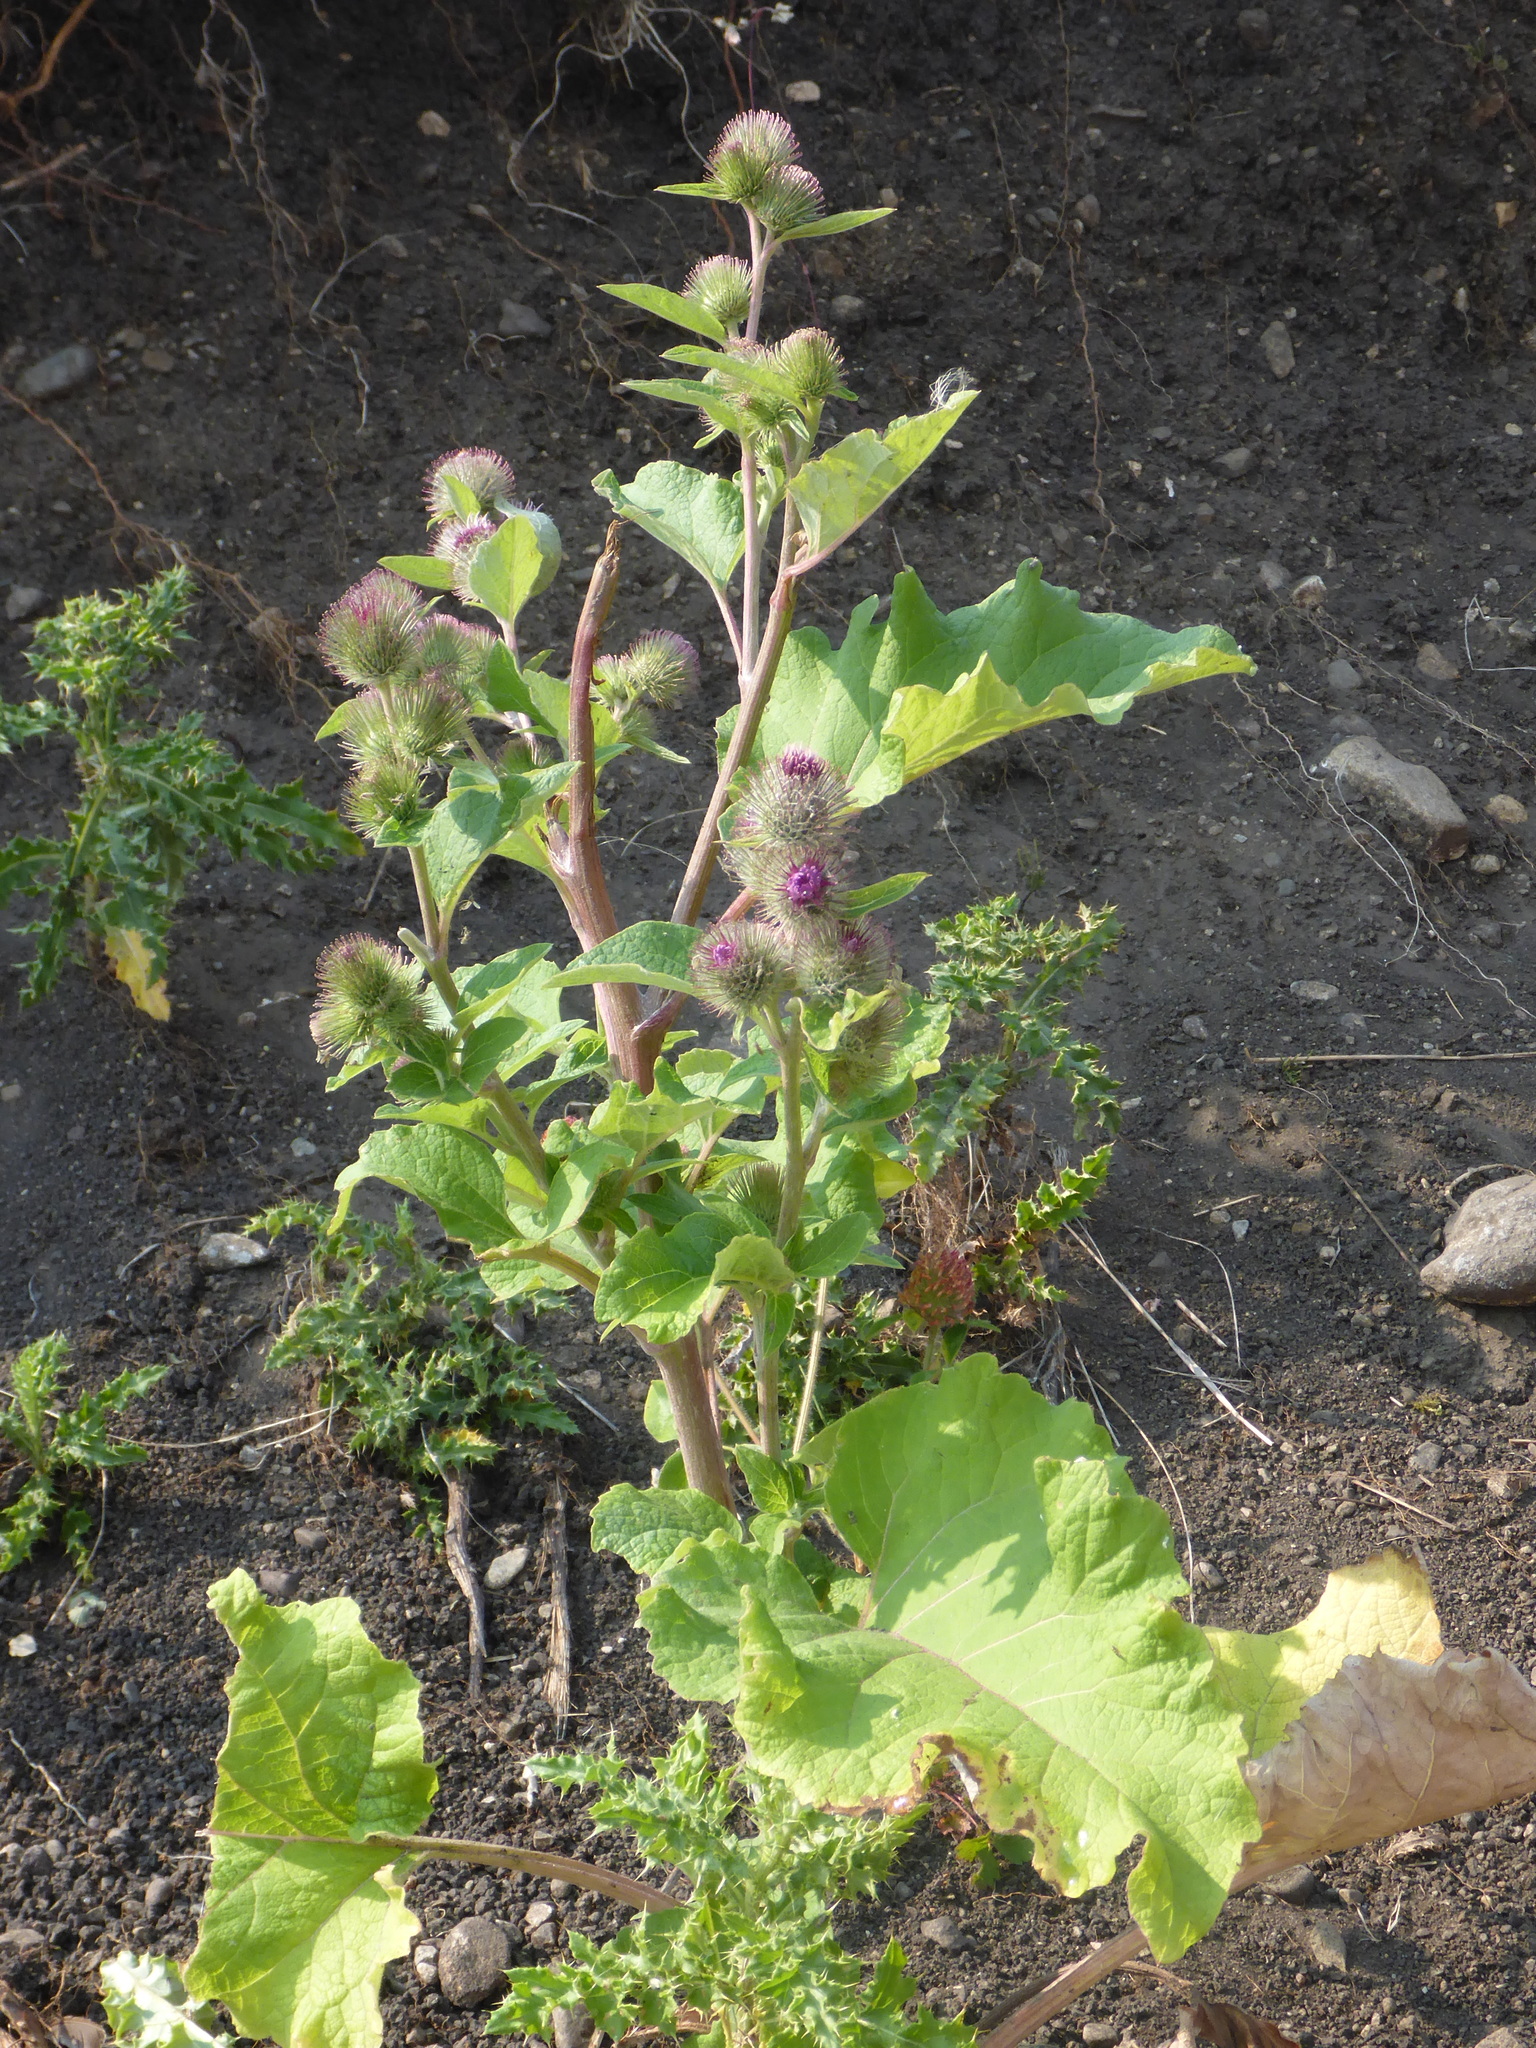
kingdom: Plantae
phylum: Tracheophyta
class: Magnoliopsida
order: Asterales
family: Asteraceae
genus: Arctium
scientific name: Arctium minus
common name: Lesser burdock
